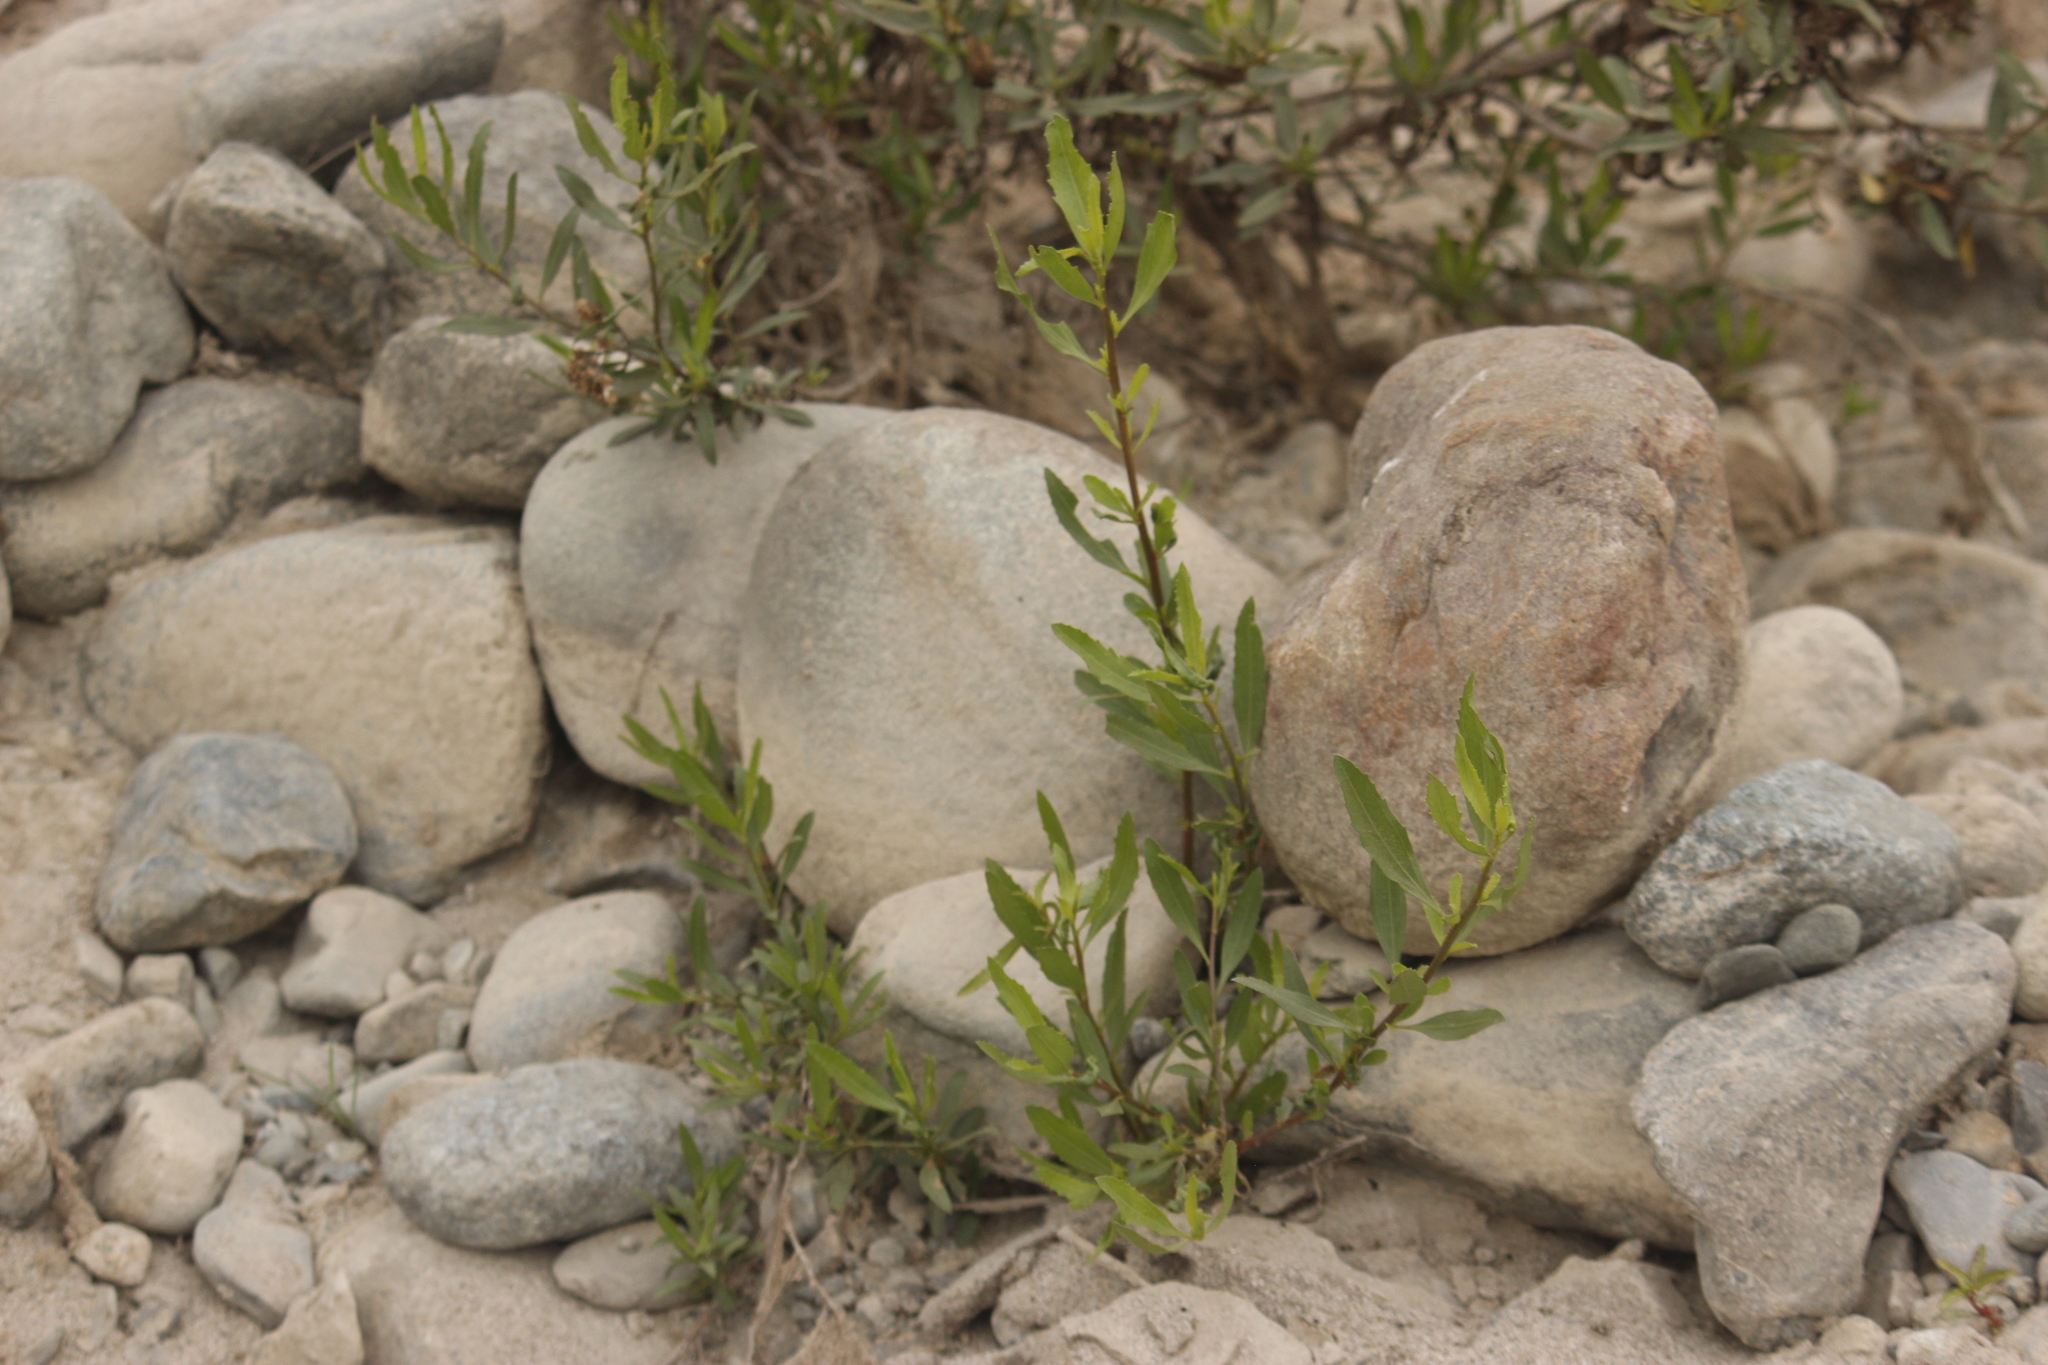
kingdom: Plantae
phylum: Tracheophyta
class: Magnoliopsida
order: Asterales
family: Asteraceae
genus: Tessaria
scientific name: Tessaria integrifolia
